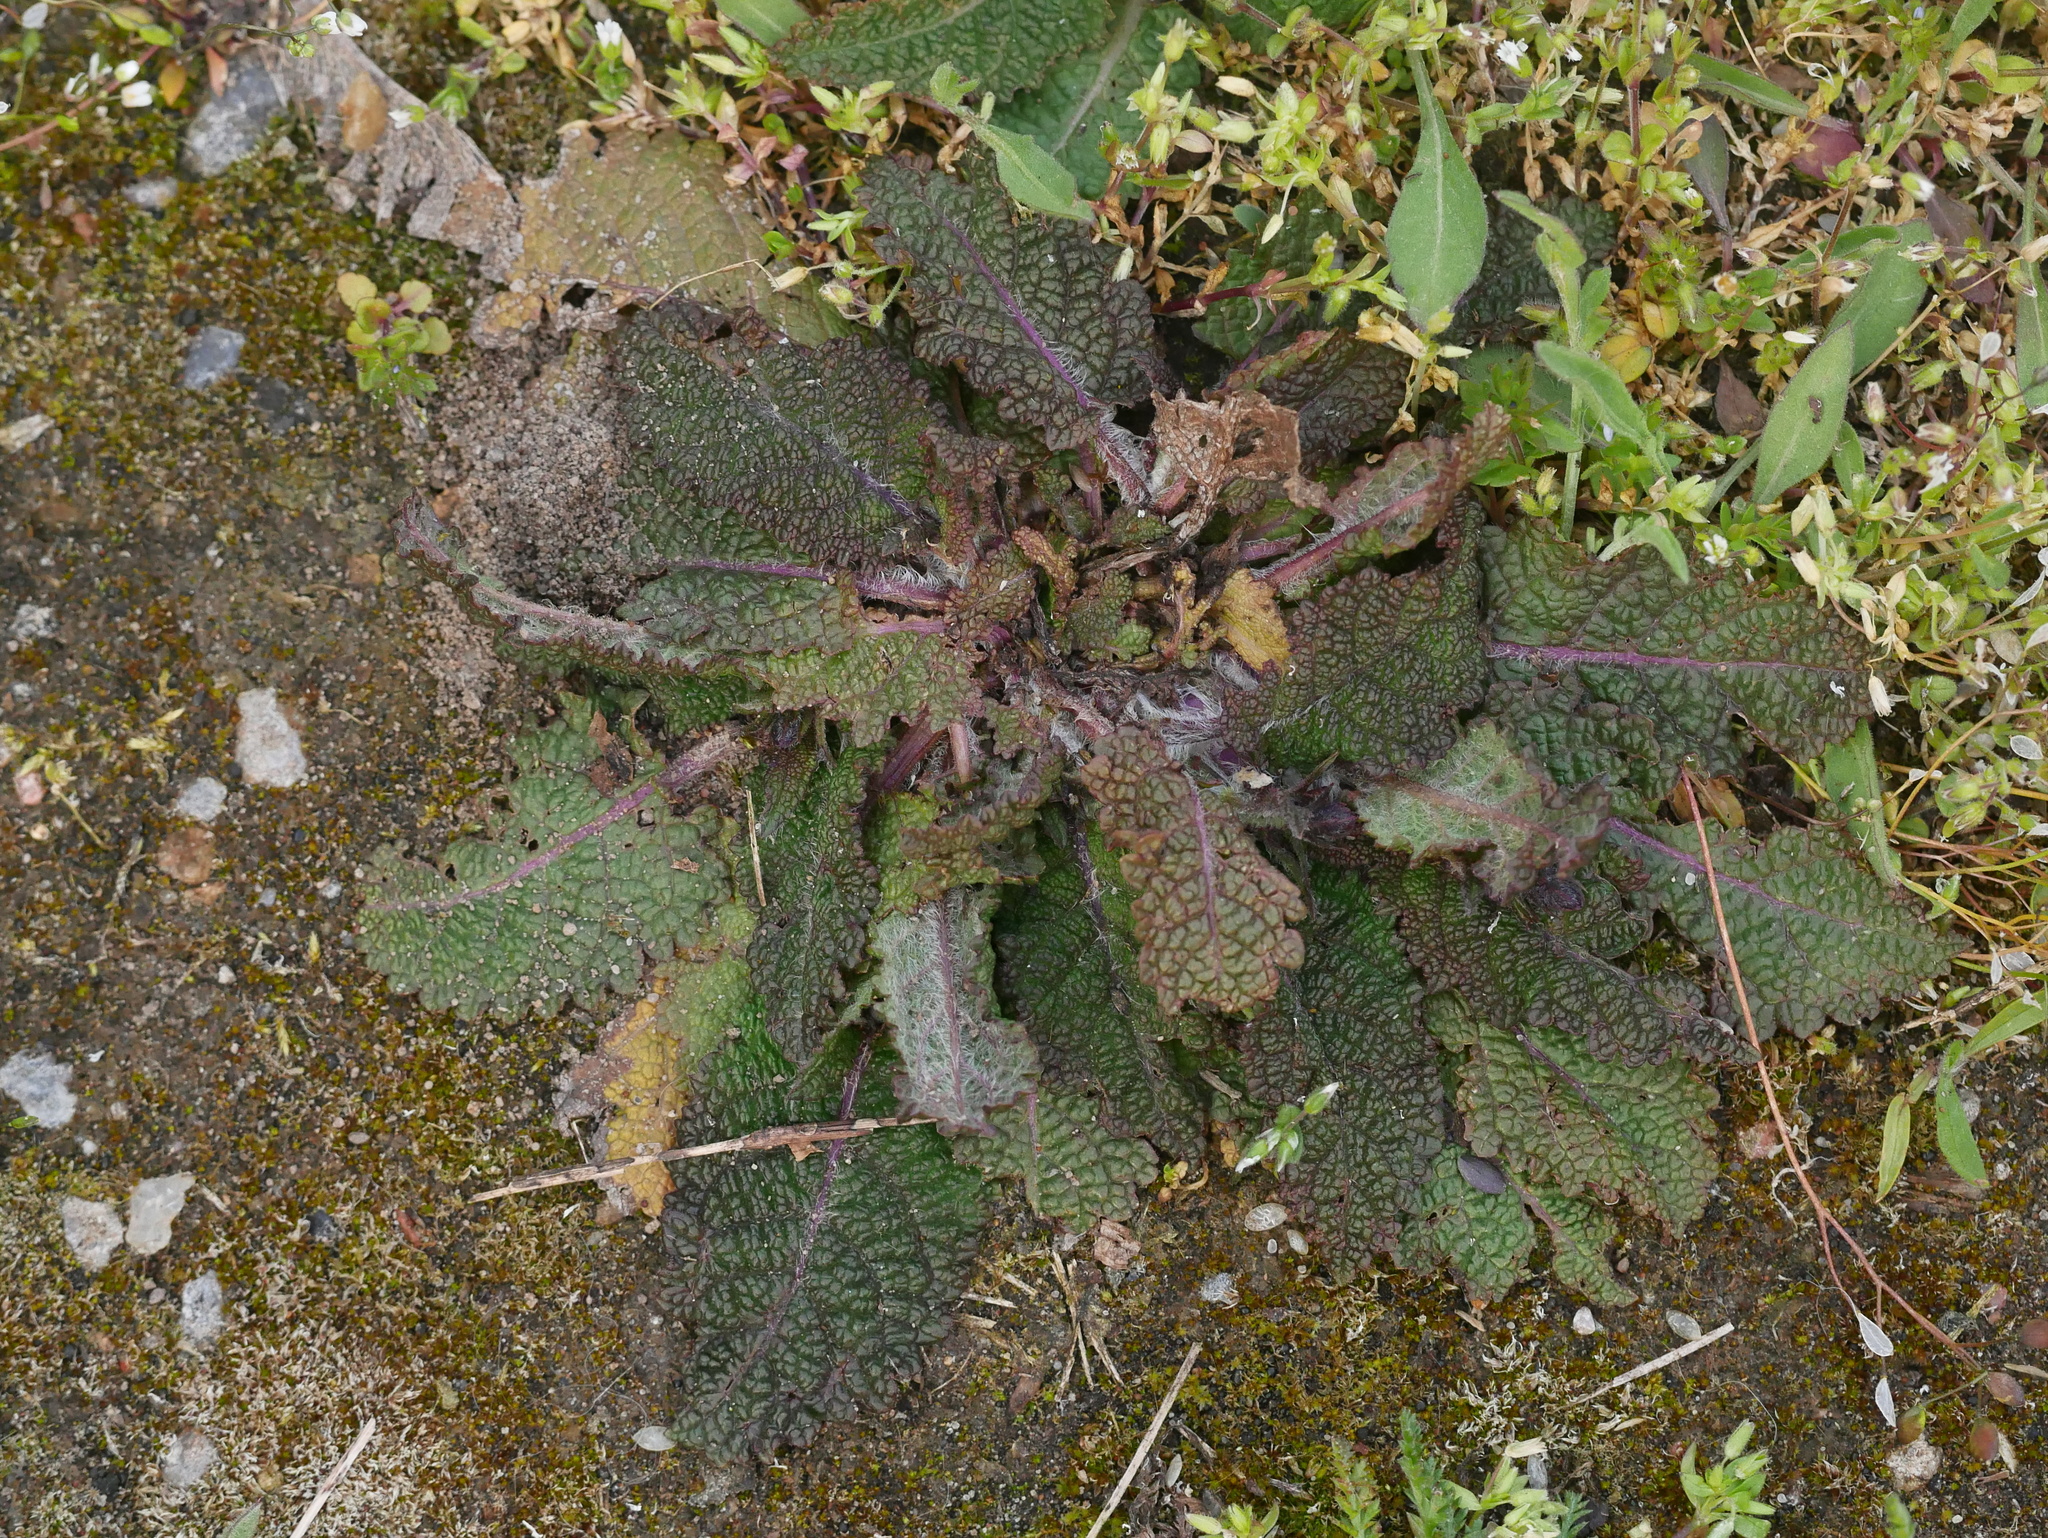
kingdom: Plantae
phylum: Tracheophyta
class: Magnoliopsida
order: Lamiales
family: Lamiaceae
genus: Salvia
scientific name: Salvia pratensis
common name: Meadow sage
